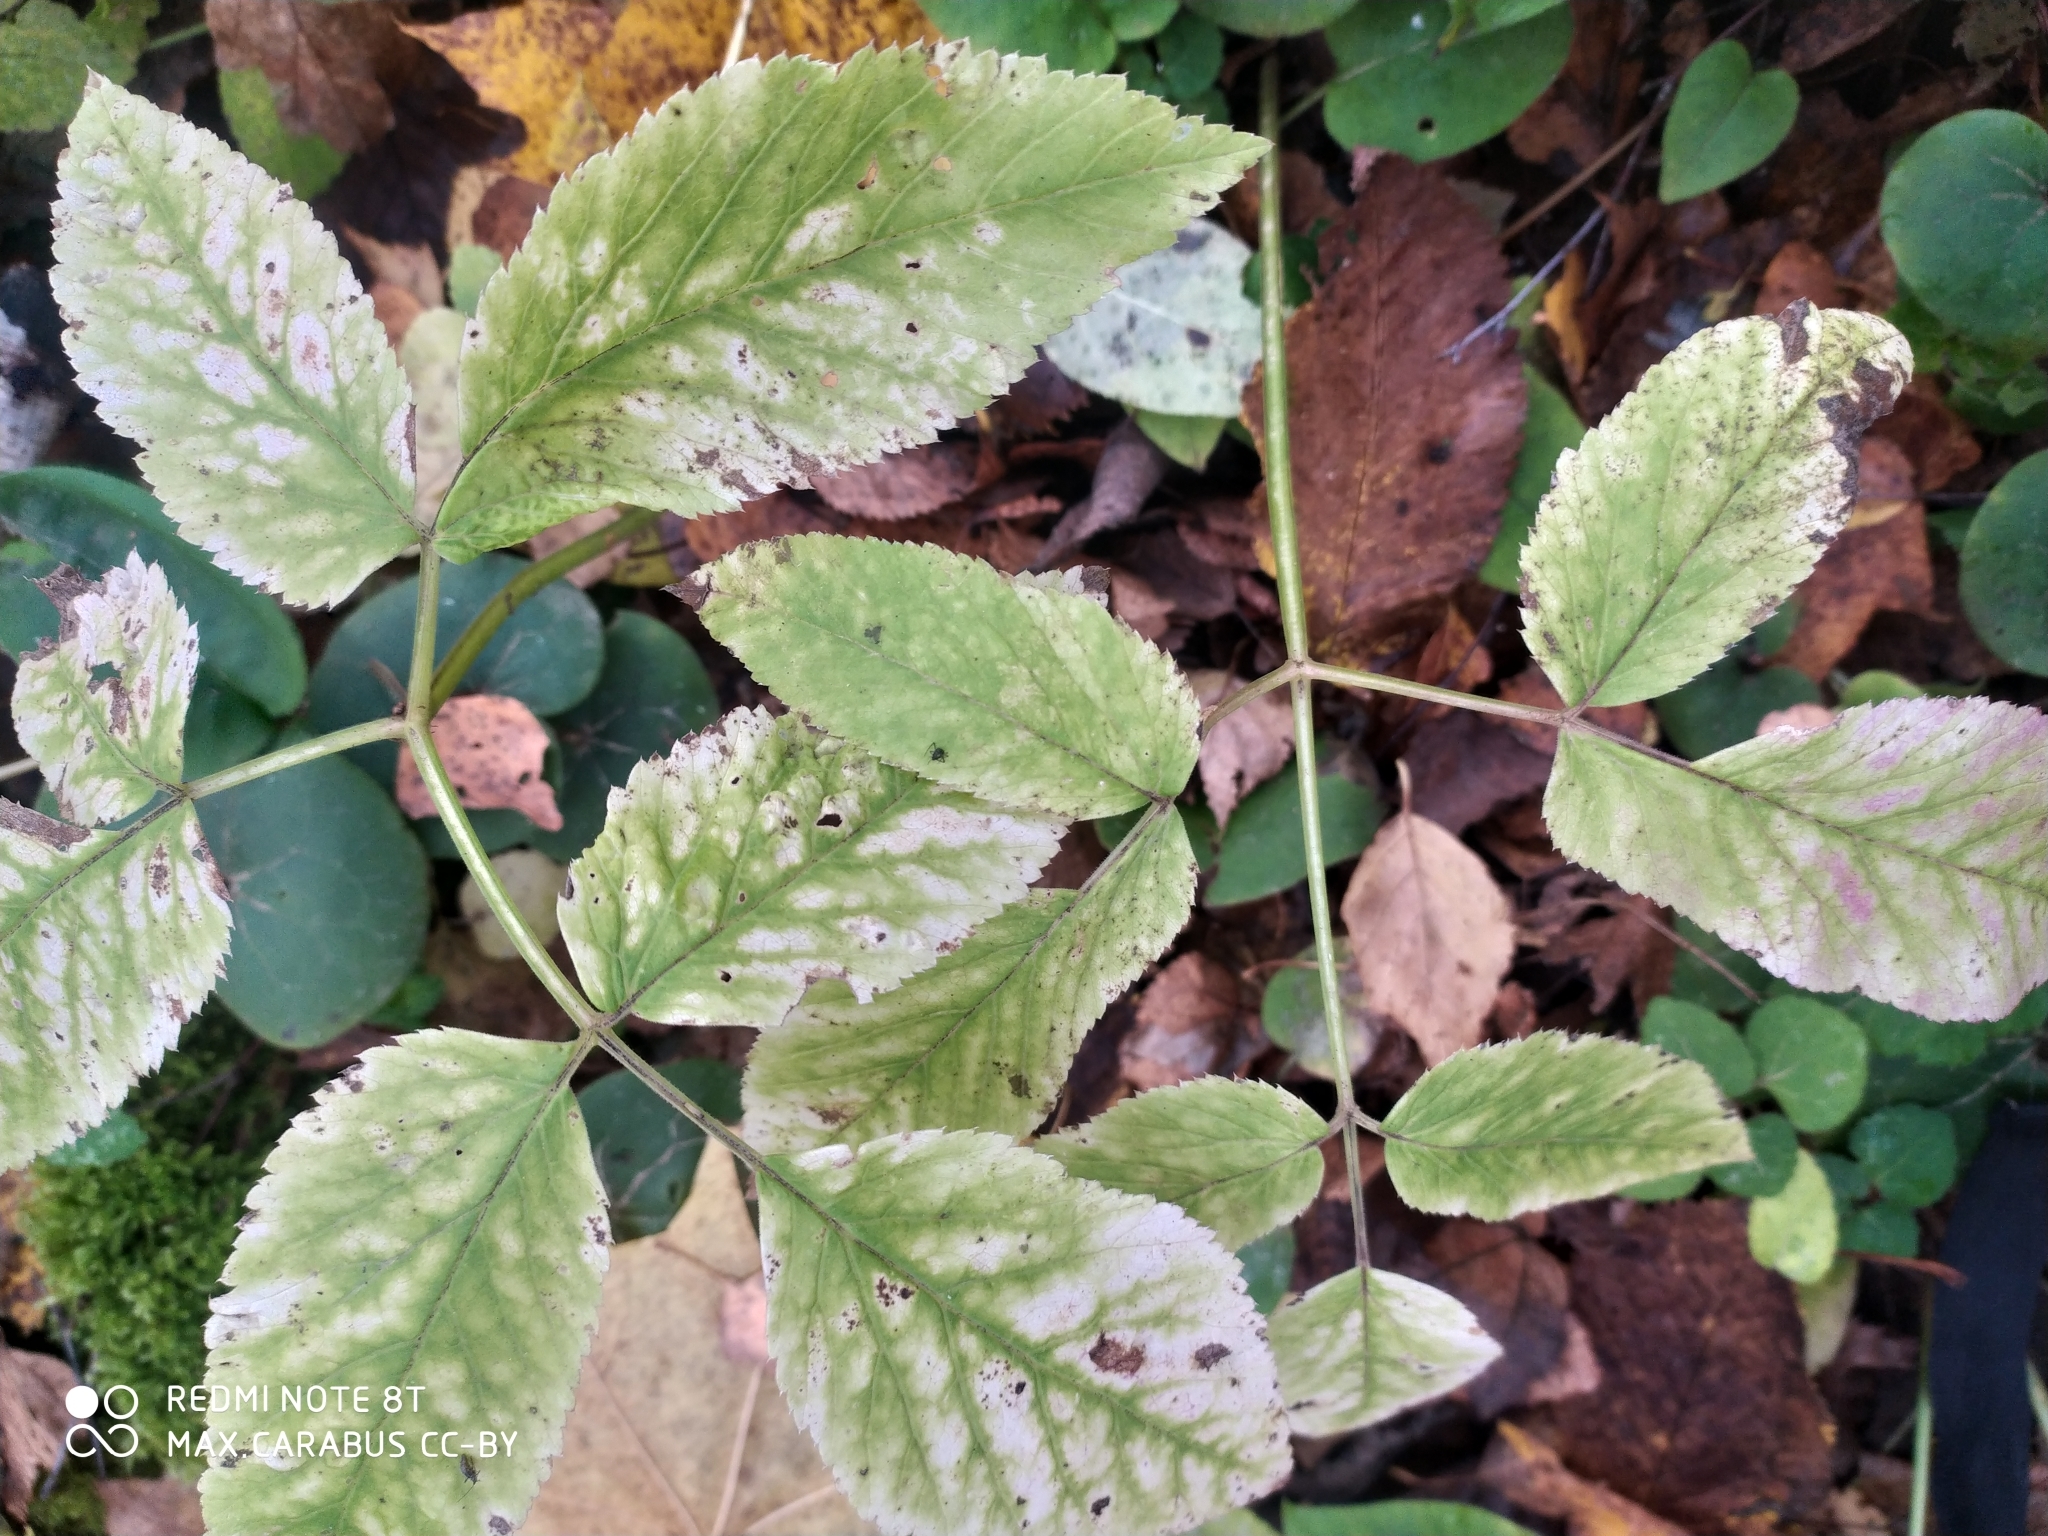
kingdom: Plantae
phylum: Tracheophyta
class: Magnoliopsida
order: Apiales
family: Apiaceae
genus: Aegopodium
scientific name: Aegopodium podagraria
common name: Ground-elder
